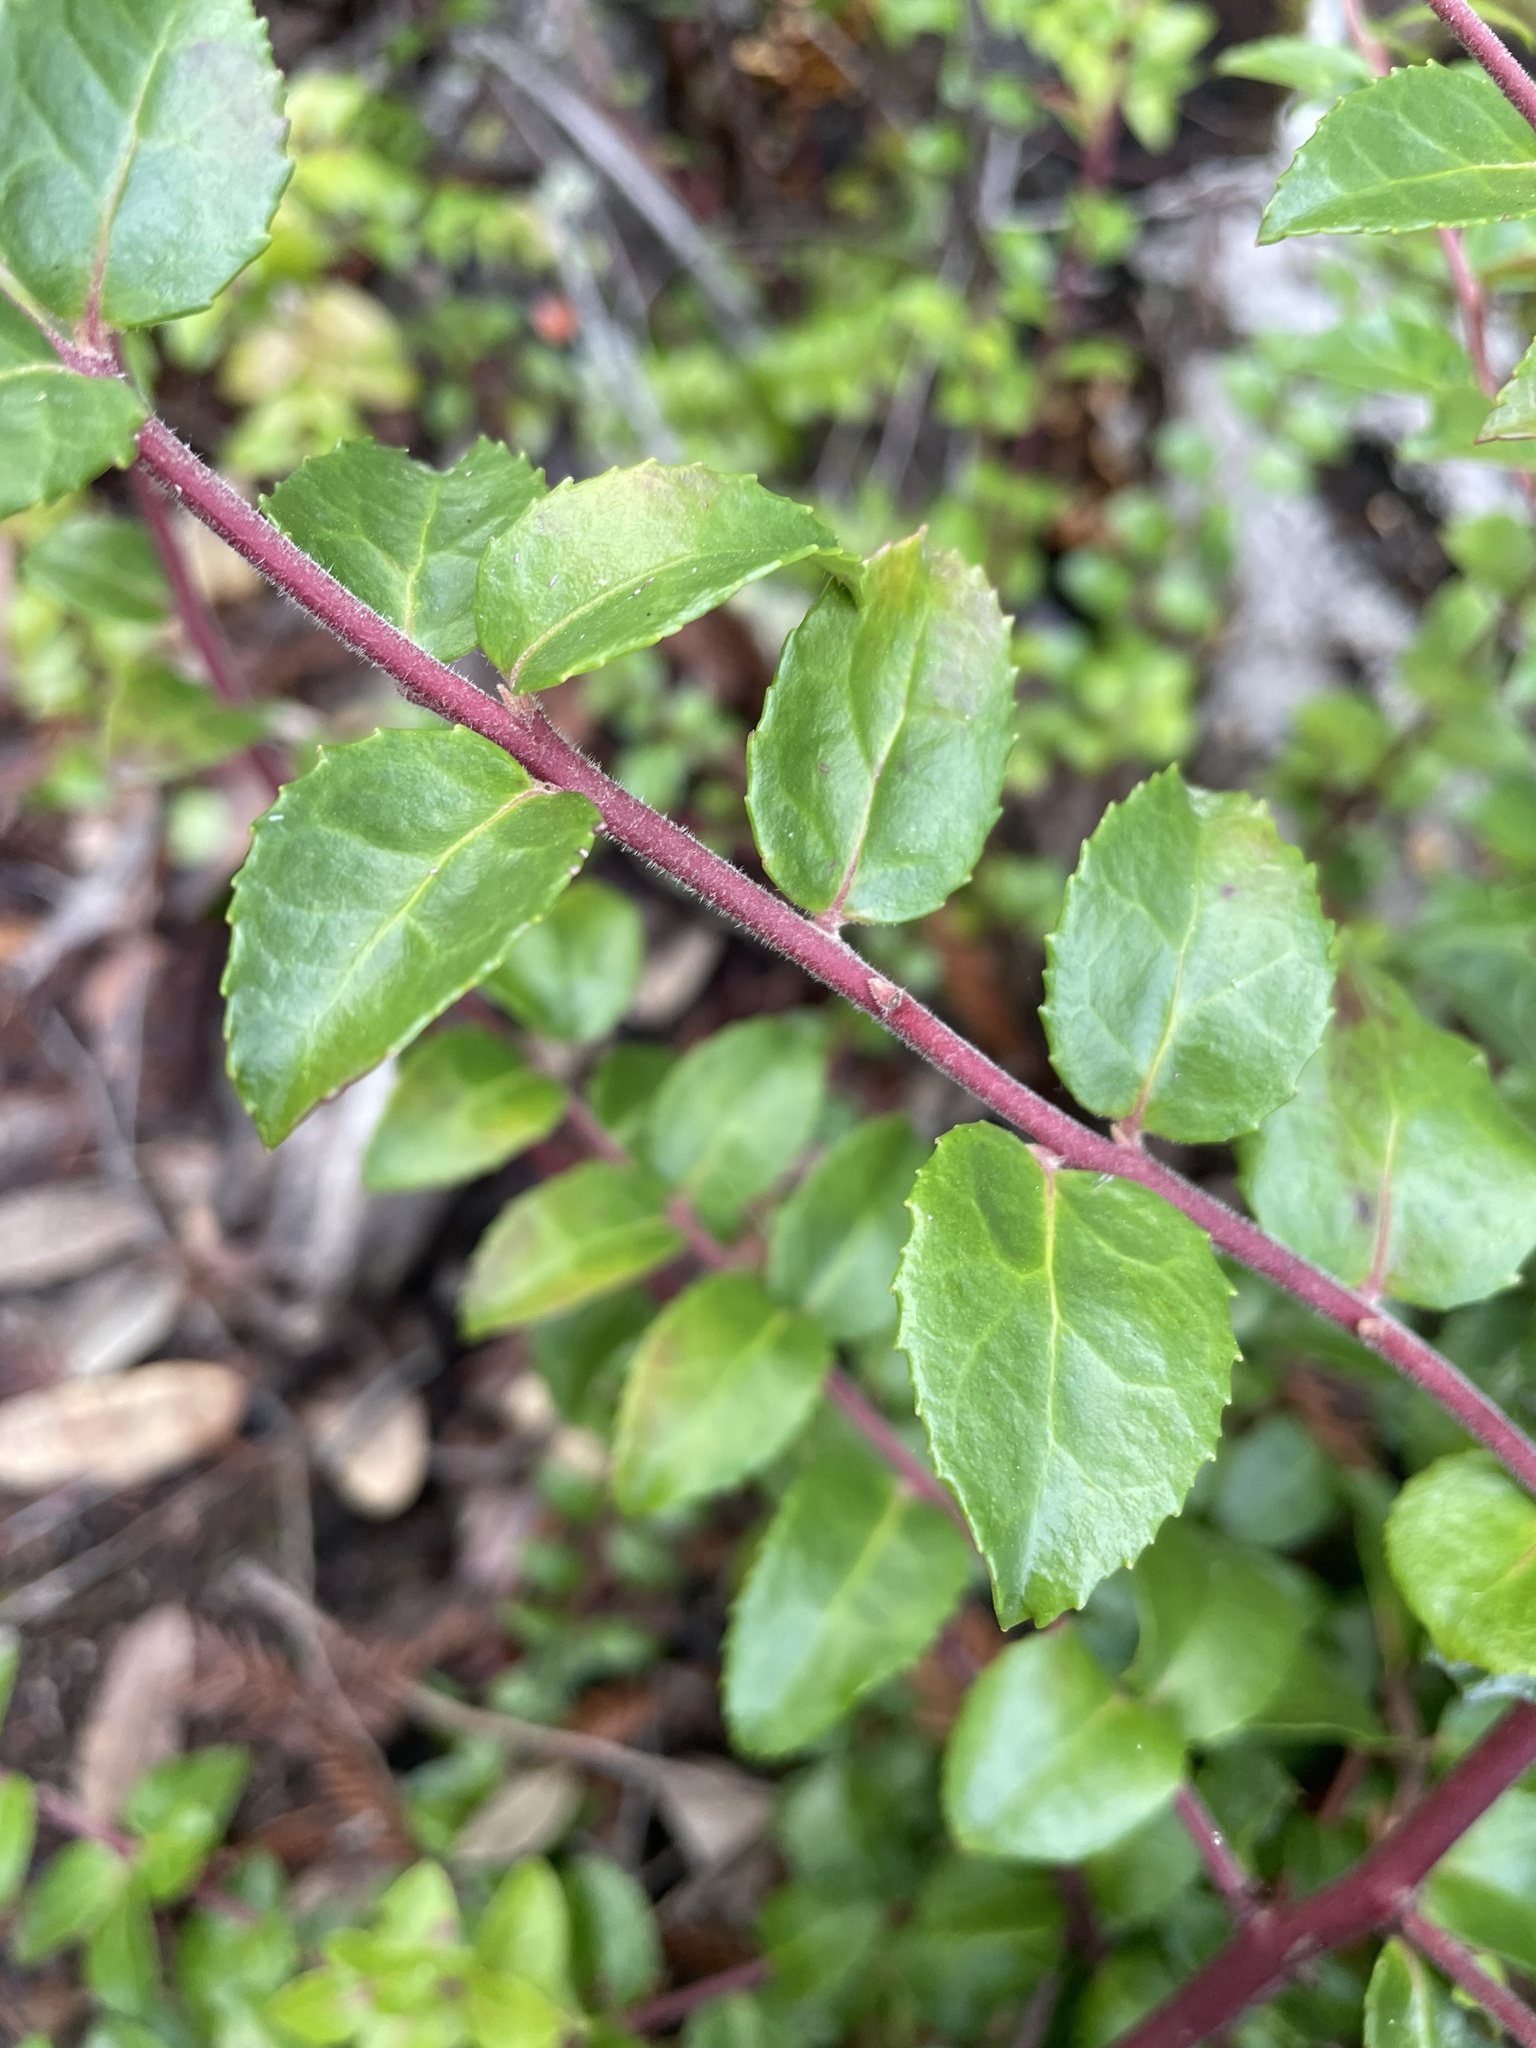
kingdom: Plantae
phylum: Tracheophyta
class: Magnoliopsida
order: Ericales
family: Ericaceae
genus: Vaccinium
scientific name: Vaccinium ovatum
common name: California-huckleberry
